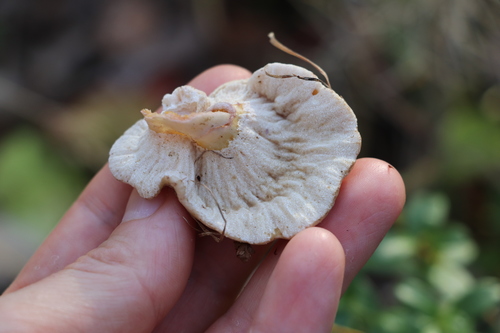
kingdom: Fungi
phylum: Ascomycota
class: Sordariomycetes
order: Hypocreales
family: Hypocreaceae
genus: Hypomyces
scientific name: Hypomyces lateritius
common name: Ochre gillgobbler
